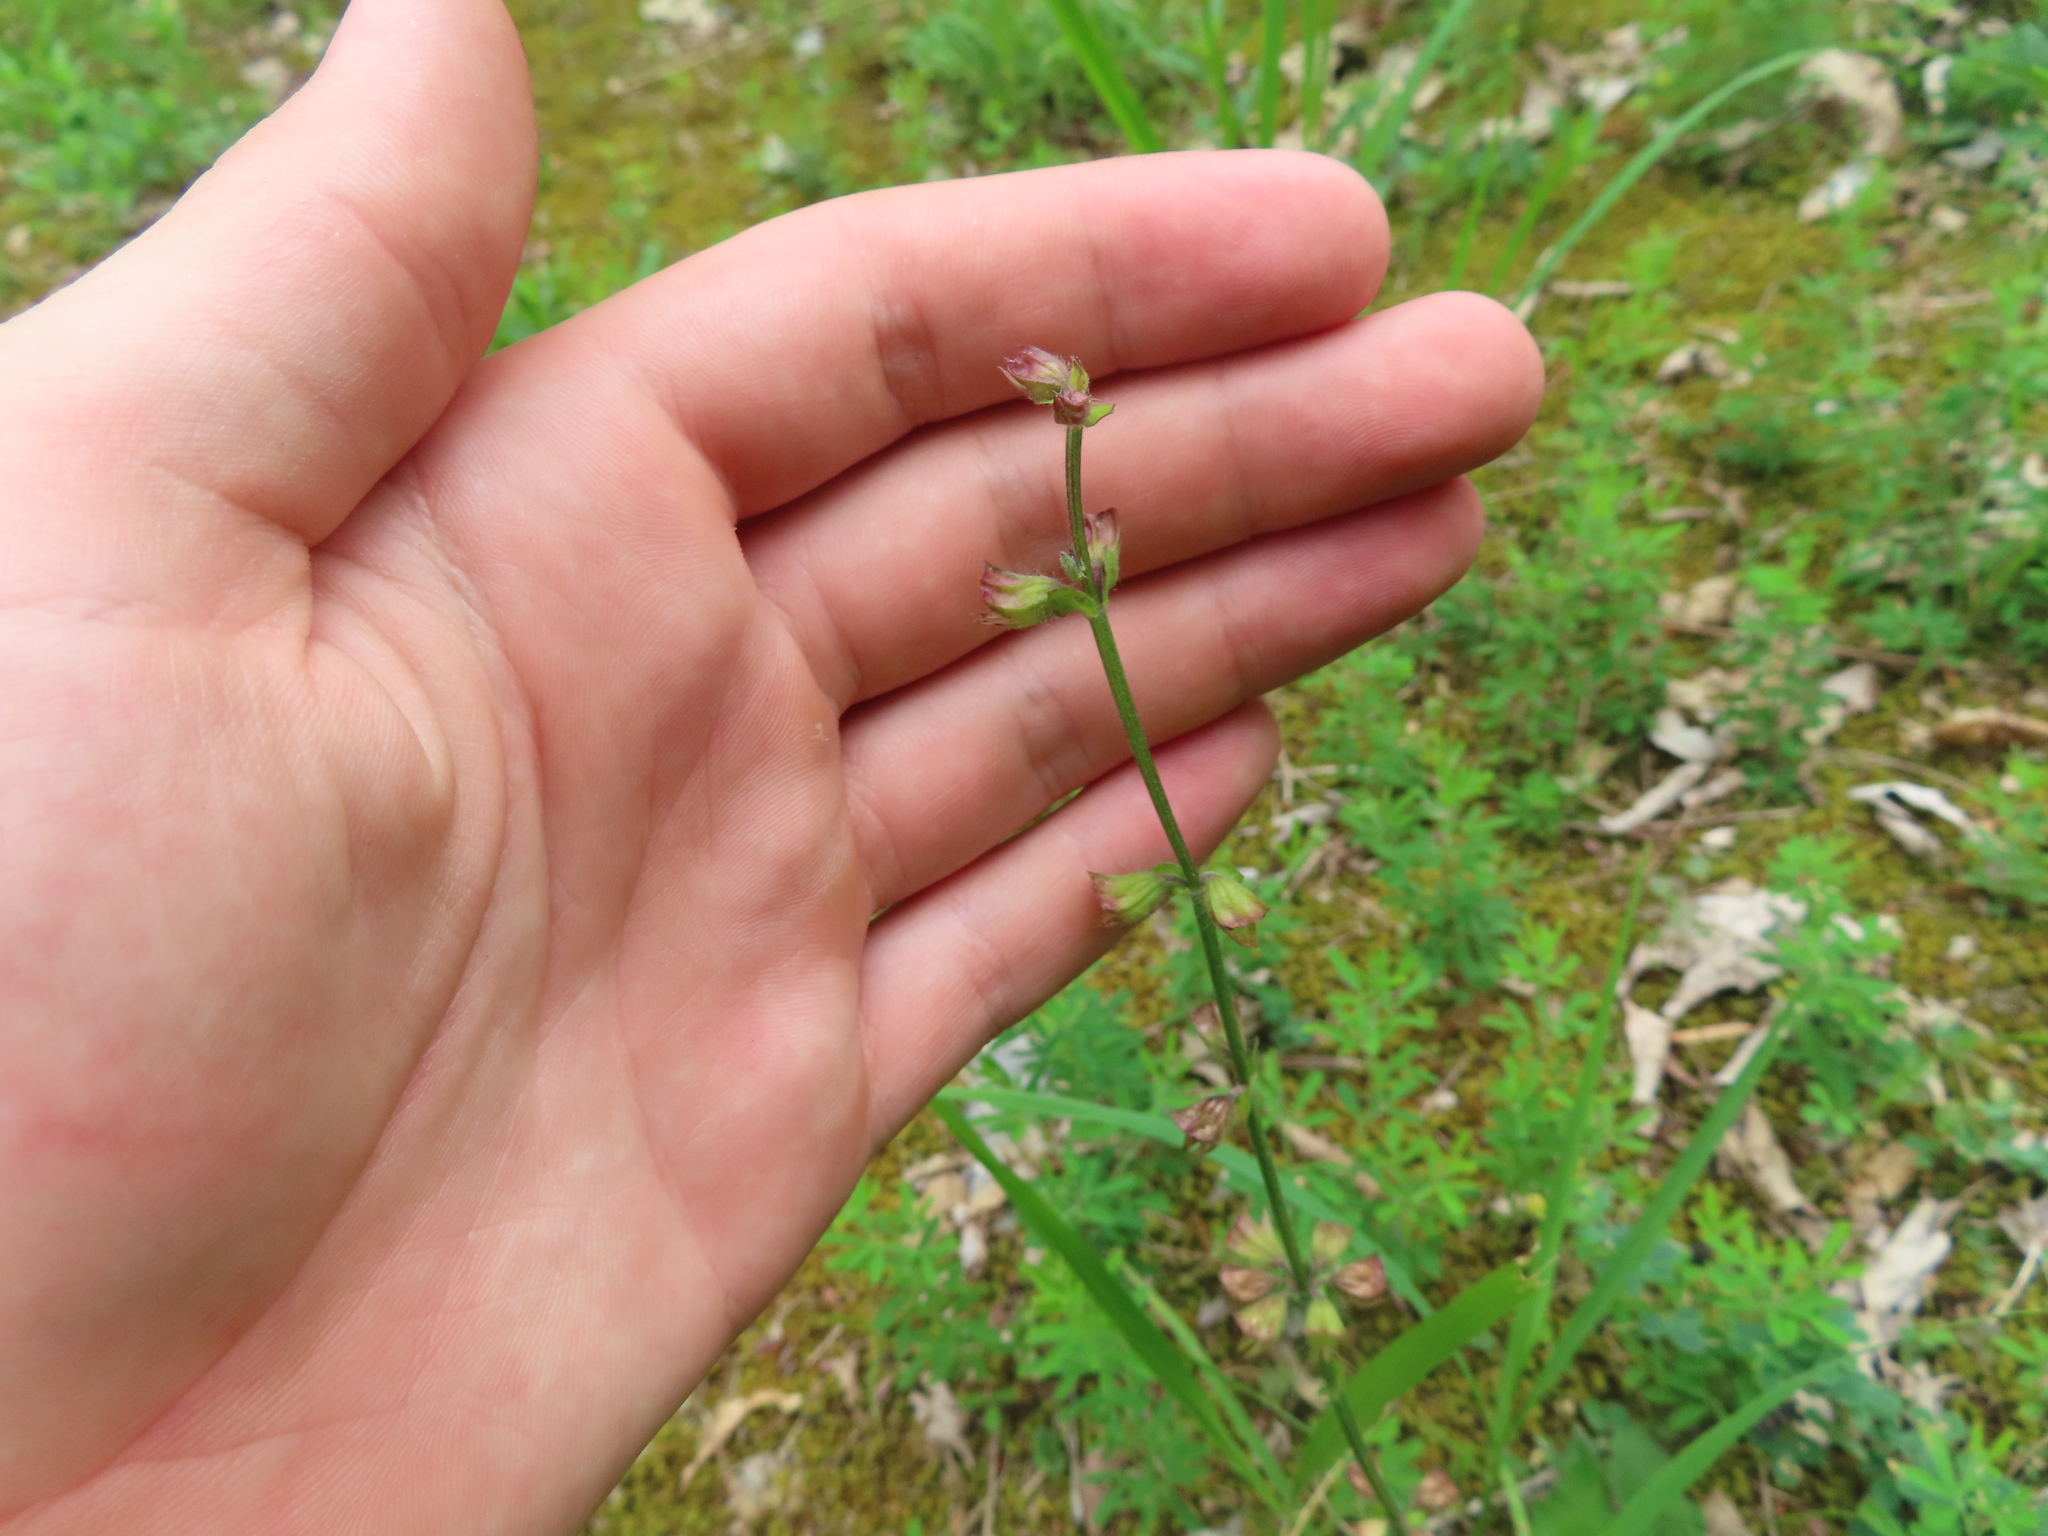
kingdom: Plantae
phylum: Tracheophyta
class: Magnoliopsida
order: Lamiales
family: Lamiaceae
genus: Salvia
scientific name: Salvia lyrata
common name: Cancerweed
